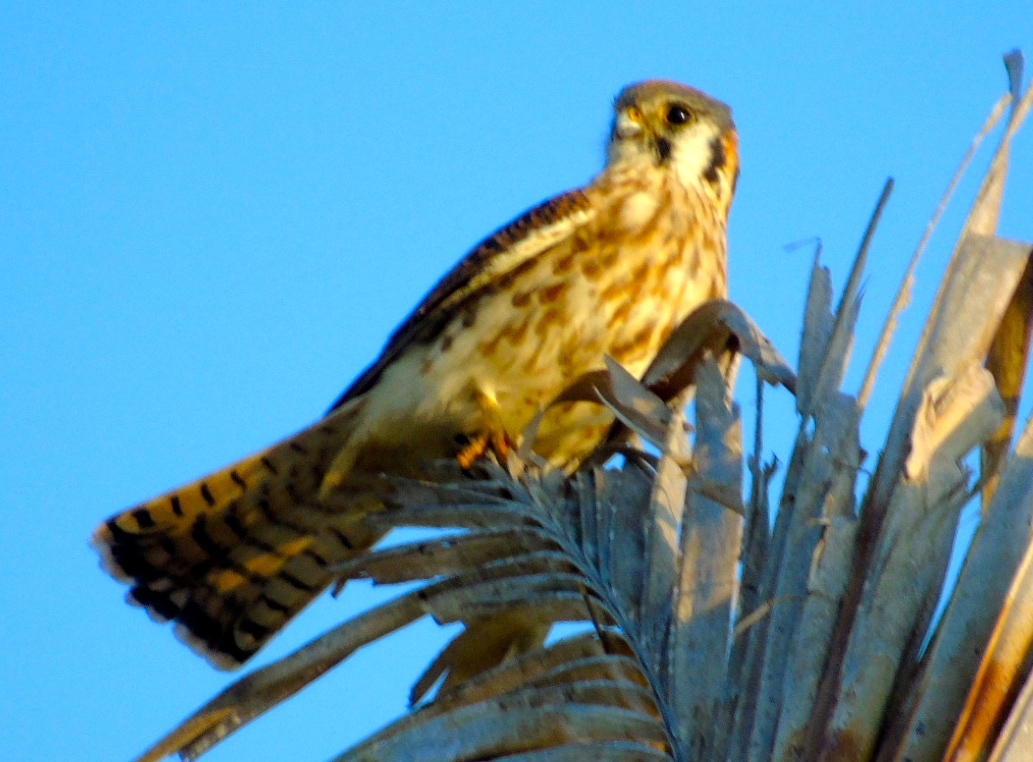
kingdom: Animalia
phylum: Chordata
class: Aves
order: Falconiformes
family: Falconidae
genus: Falco
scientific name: Falco sparverius
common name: American kestrel
